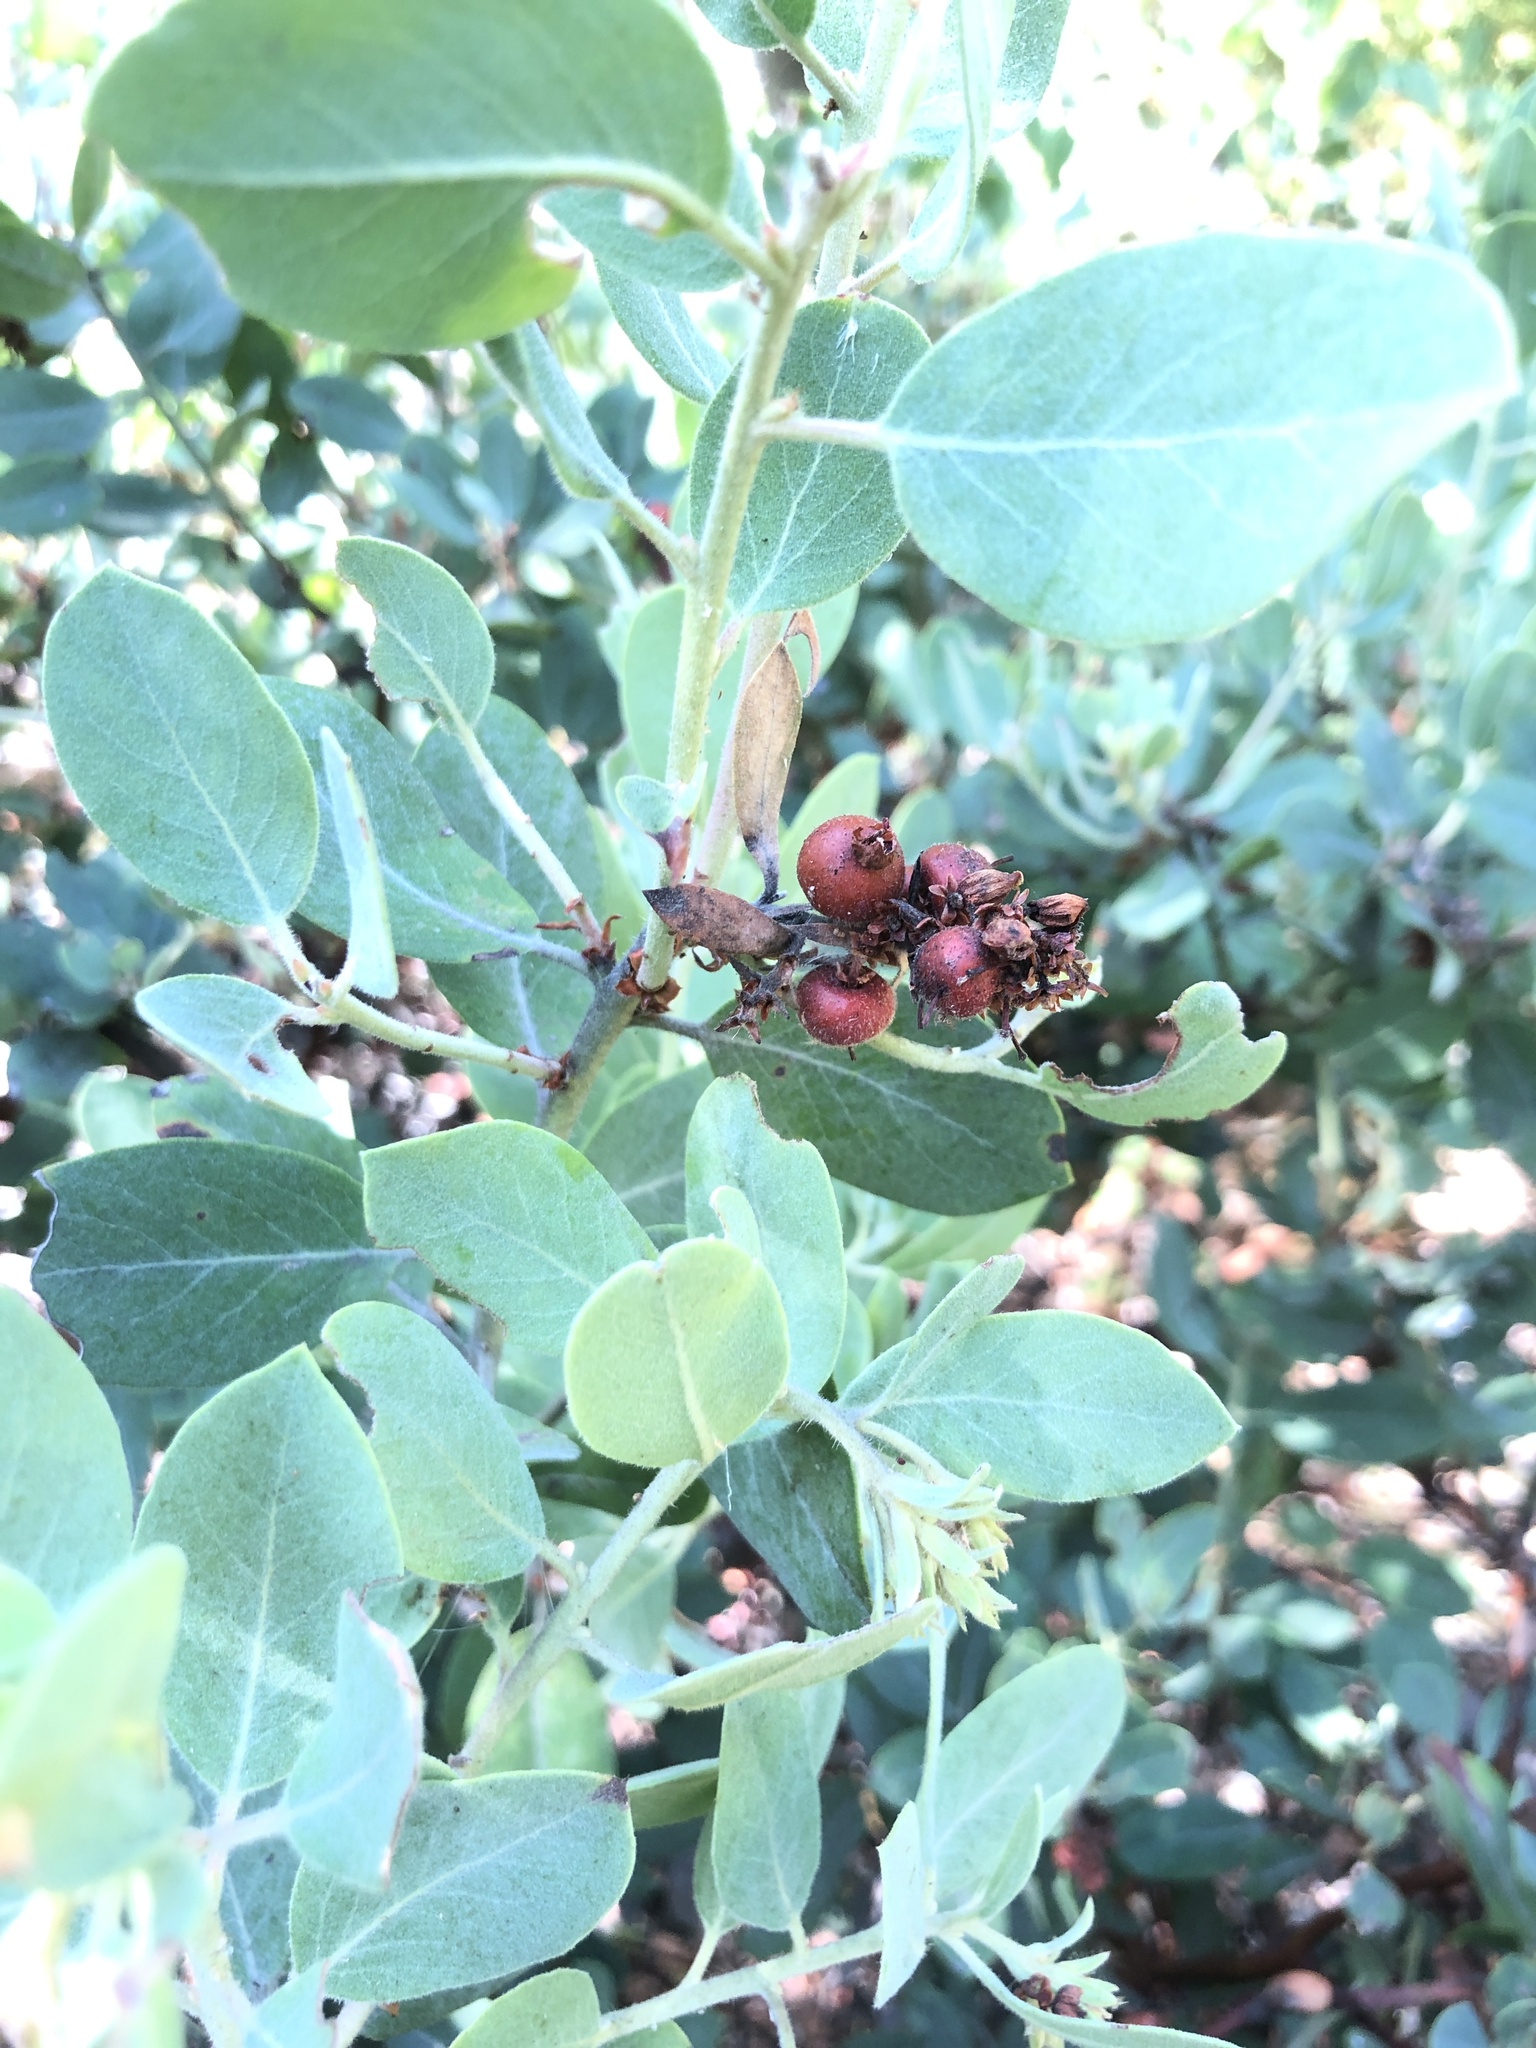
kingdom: Plantae
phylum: Tracheophyta
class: Magnoliopsida
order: Ericales
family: Ericaceae
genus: Arctostaphylos
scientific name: Arctostaphylos columbiana
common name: Bristly bearberry
